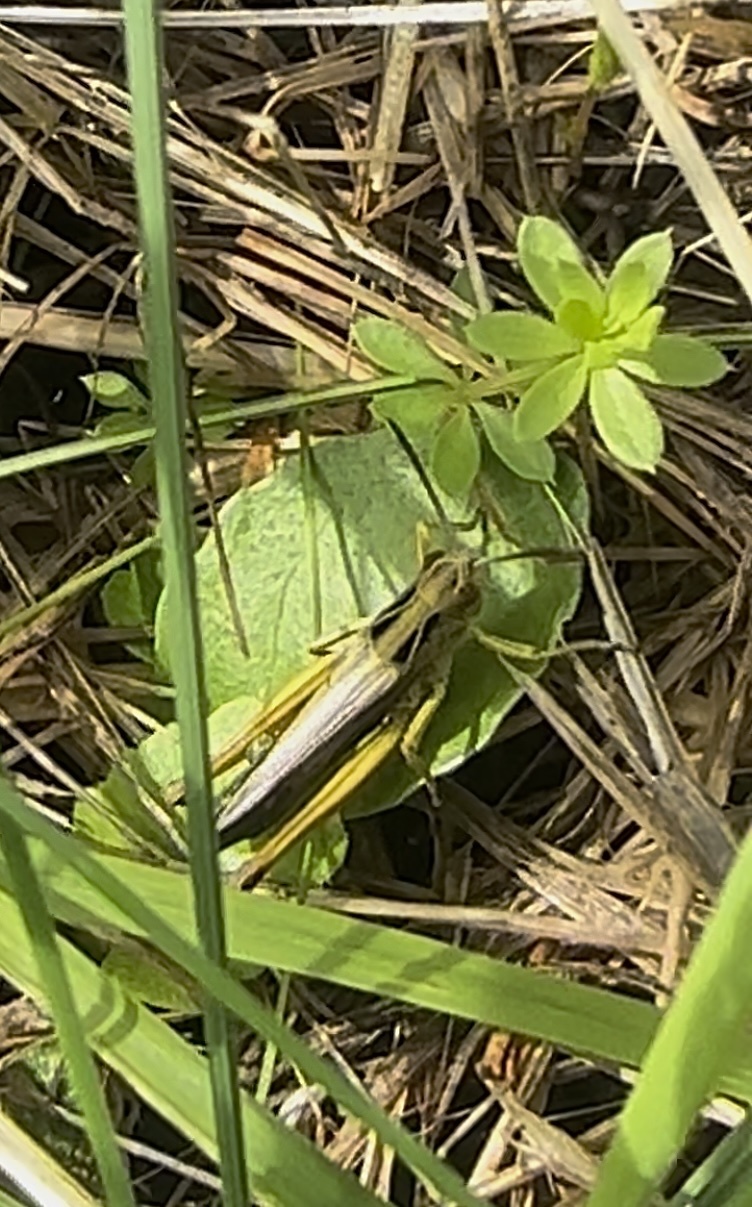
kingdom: Animalia
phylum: Arthropoda
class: Insecta
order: Orthoptera
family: Acrididae
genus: Omocestus
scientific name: Omocestus viridulus
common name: Common green grasshopper
